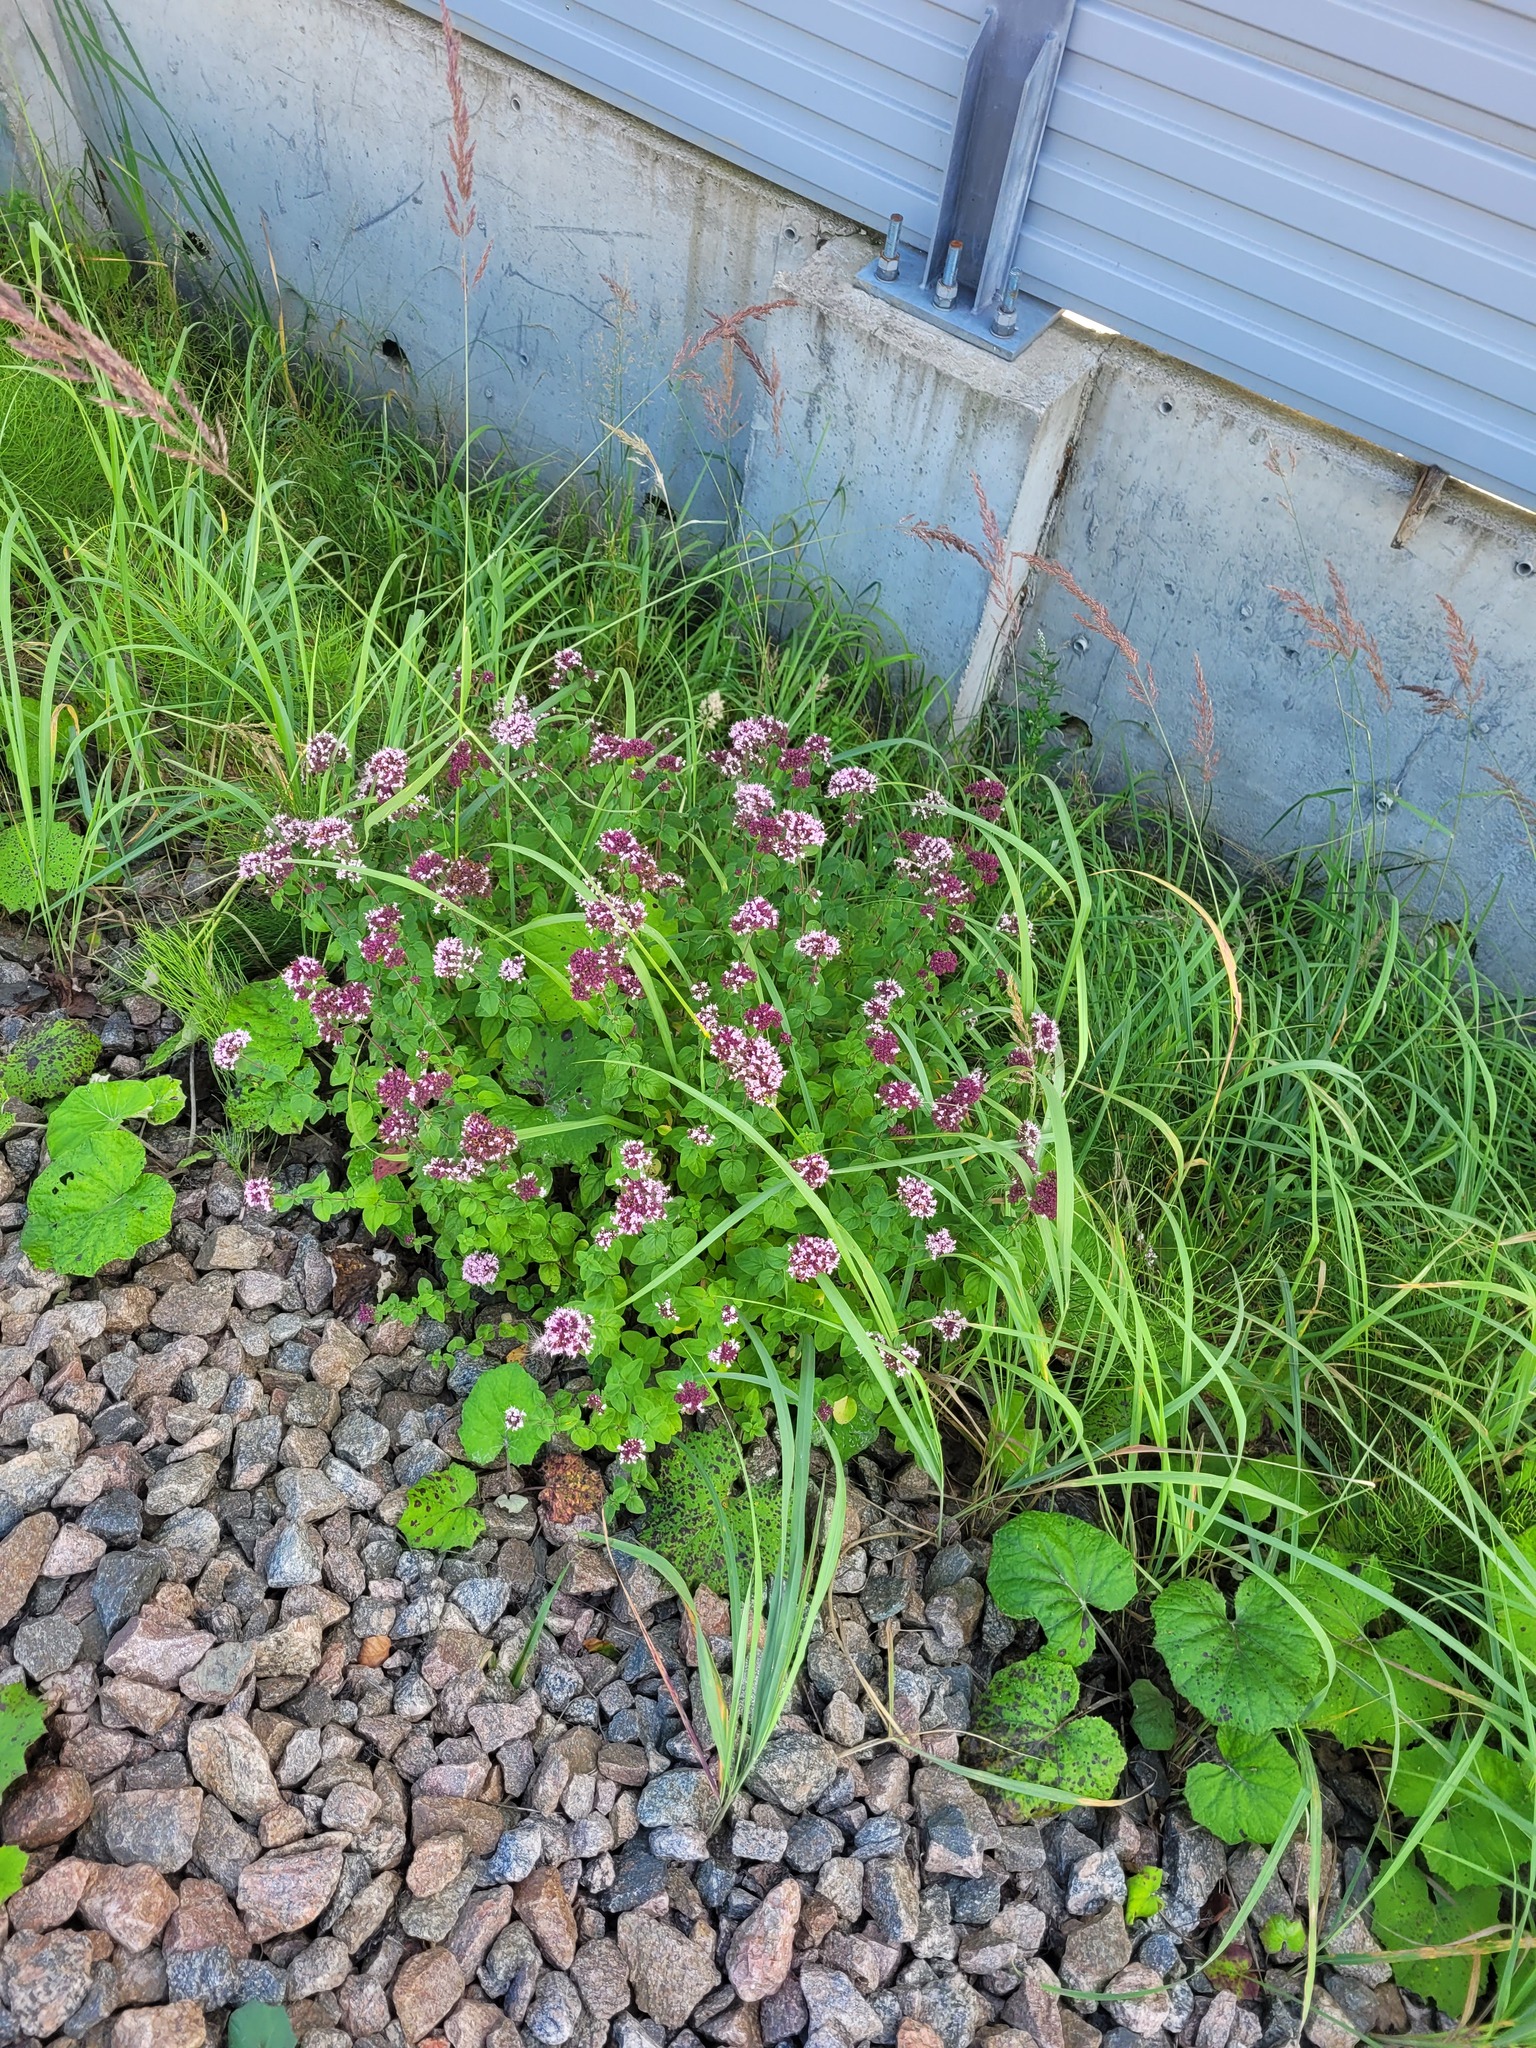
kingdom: Plantae
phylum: Tracheophyta
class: Magnoliopsida
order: Lamiales
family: Lamiaceae
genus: Origanum
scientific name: Origanum vulgare
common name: Wild marjoram
